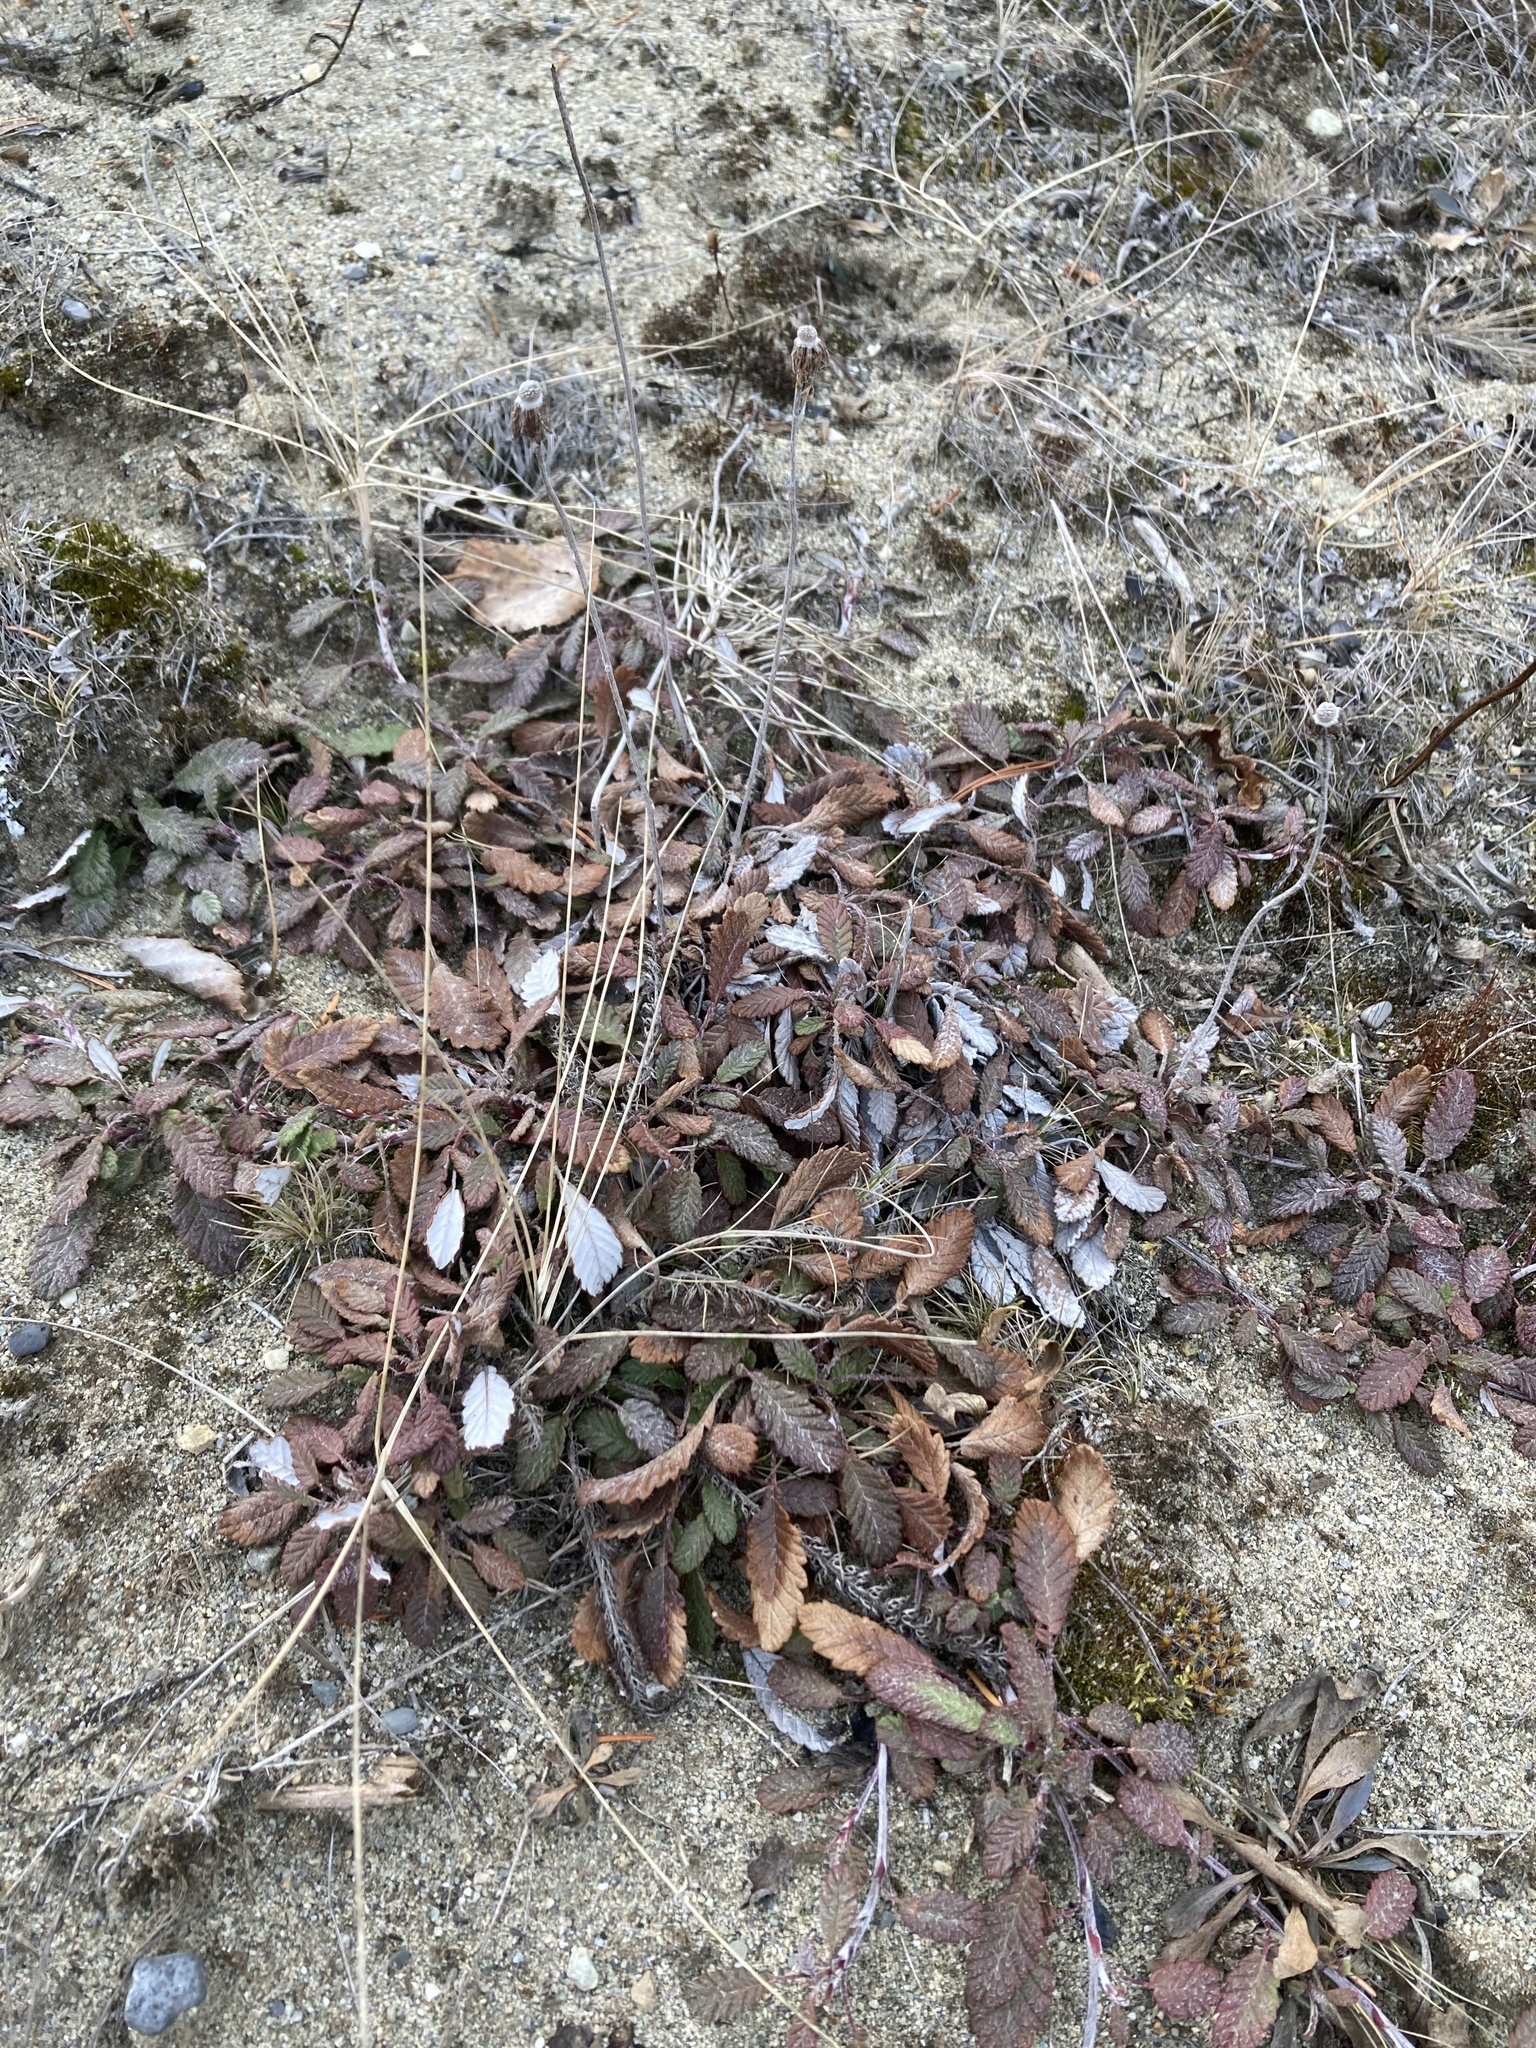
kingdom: Plantae
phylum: Tracheophyta
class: Magnoliopsida
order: Rosales
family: Rosaceae
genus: Dryas
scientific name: Dryas drummondii
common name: Drummond's dryad
